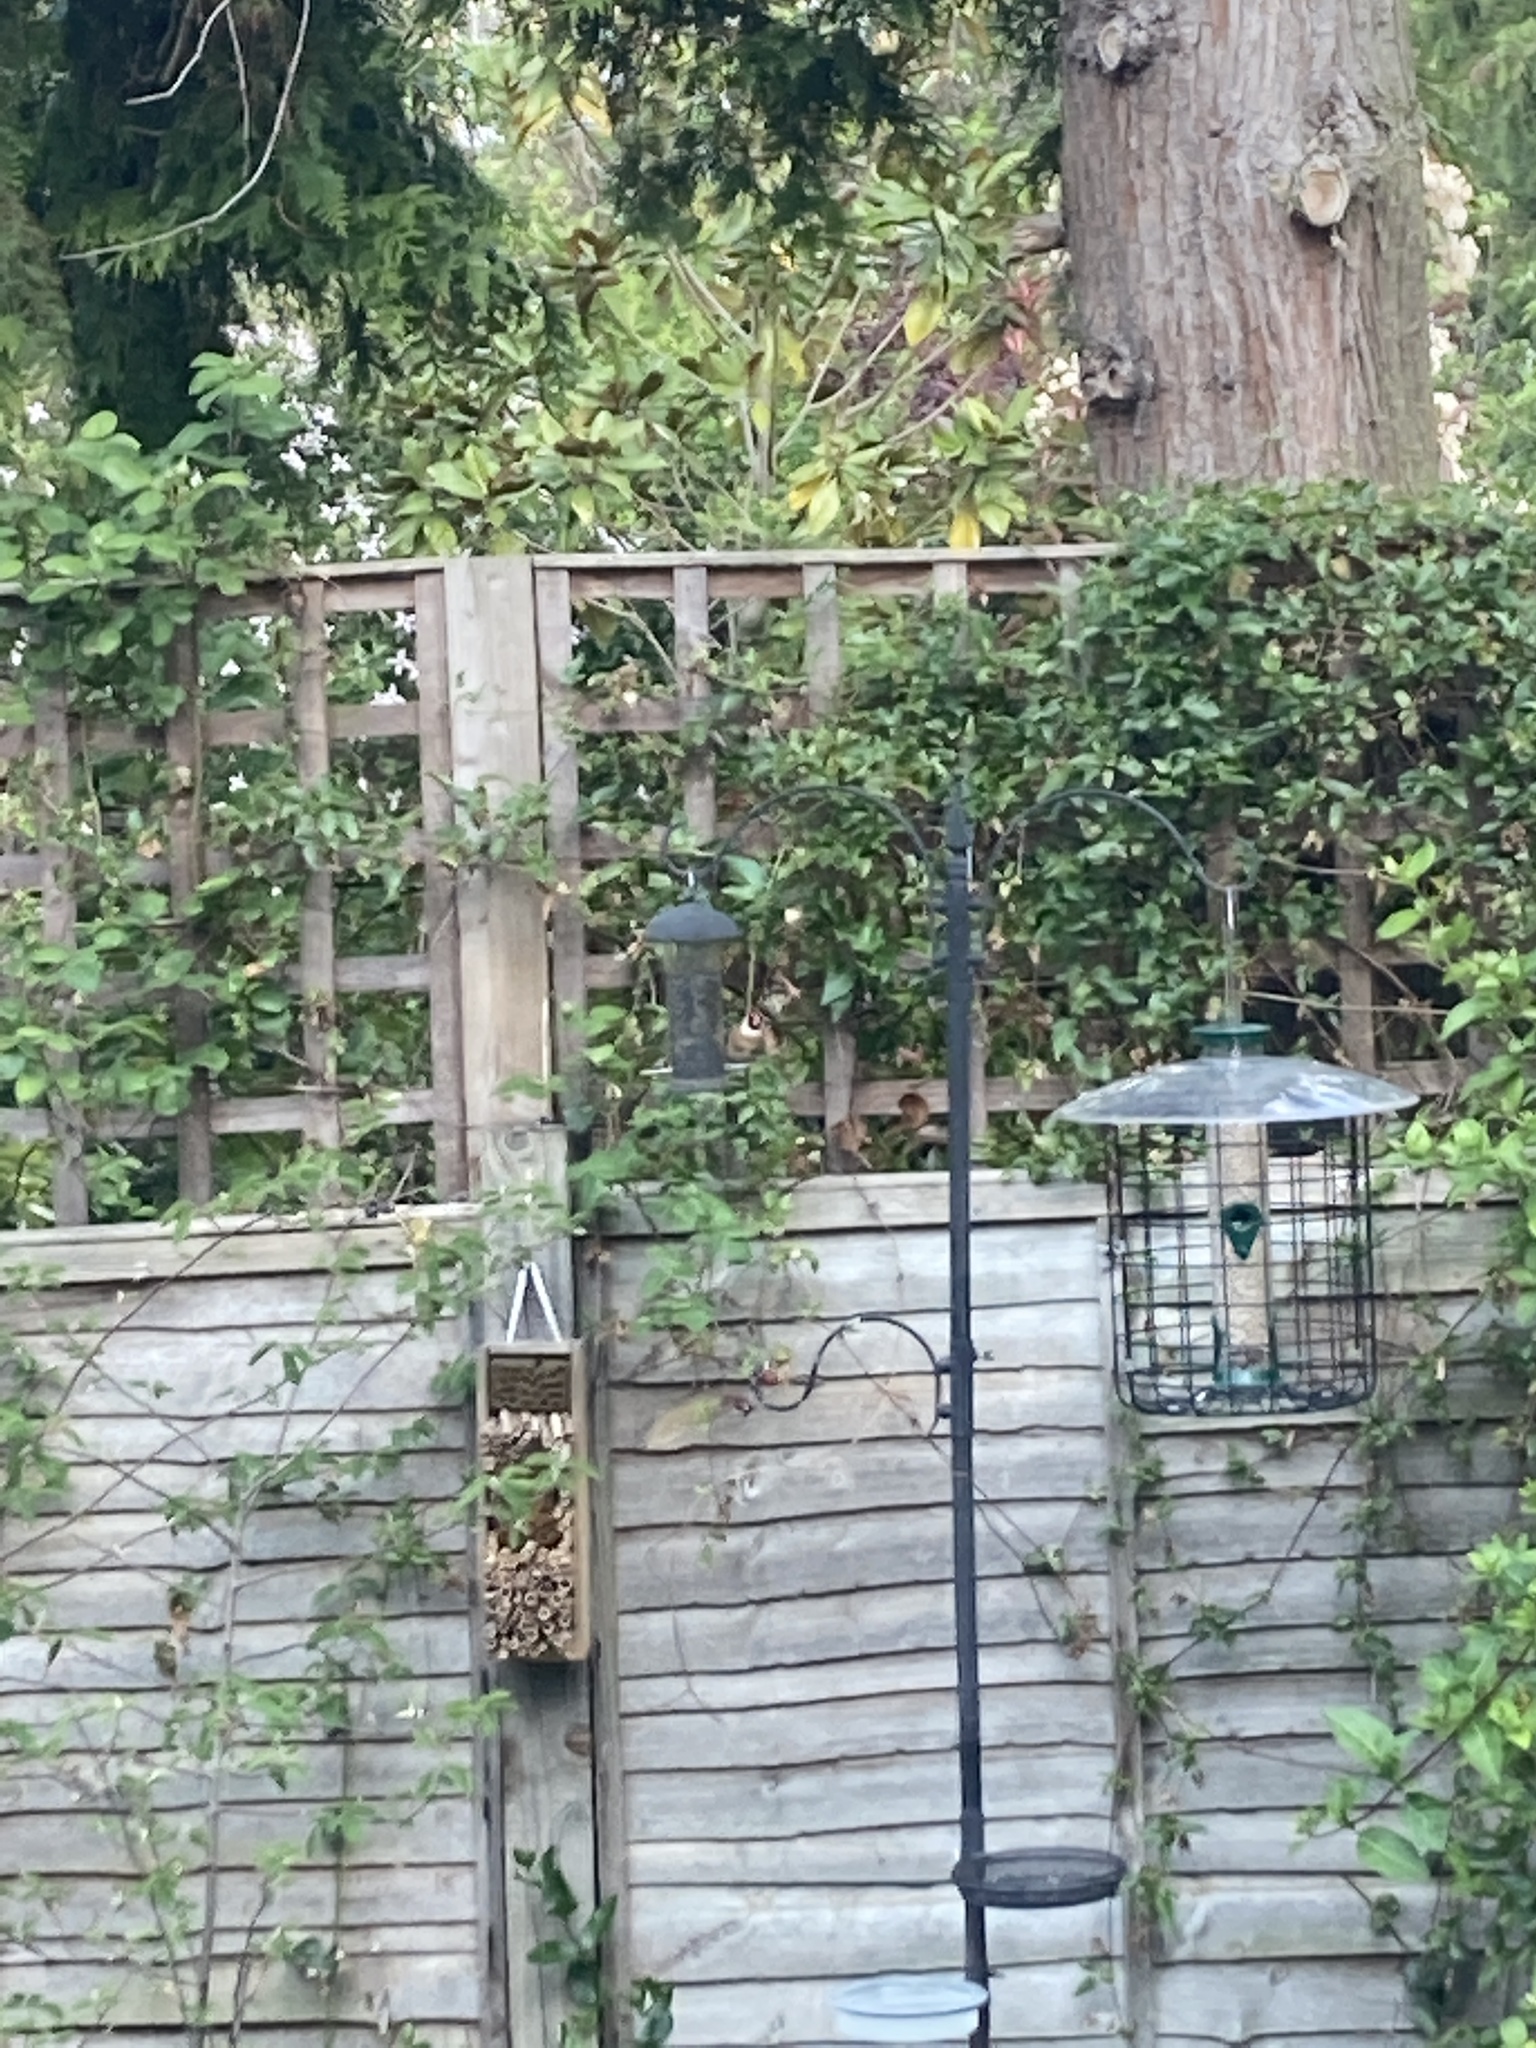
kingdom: Animalia
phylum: Chordata
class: Aves
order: Passeriformes
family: Fringillidae
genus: Carduelis
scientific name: Carduelis carduelis
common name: European goldfinch
